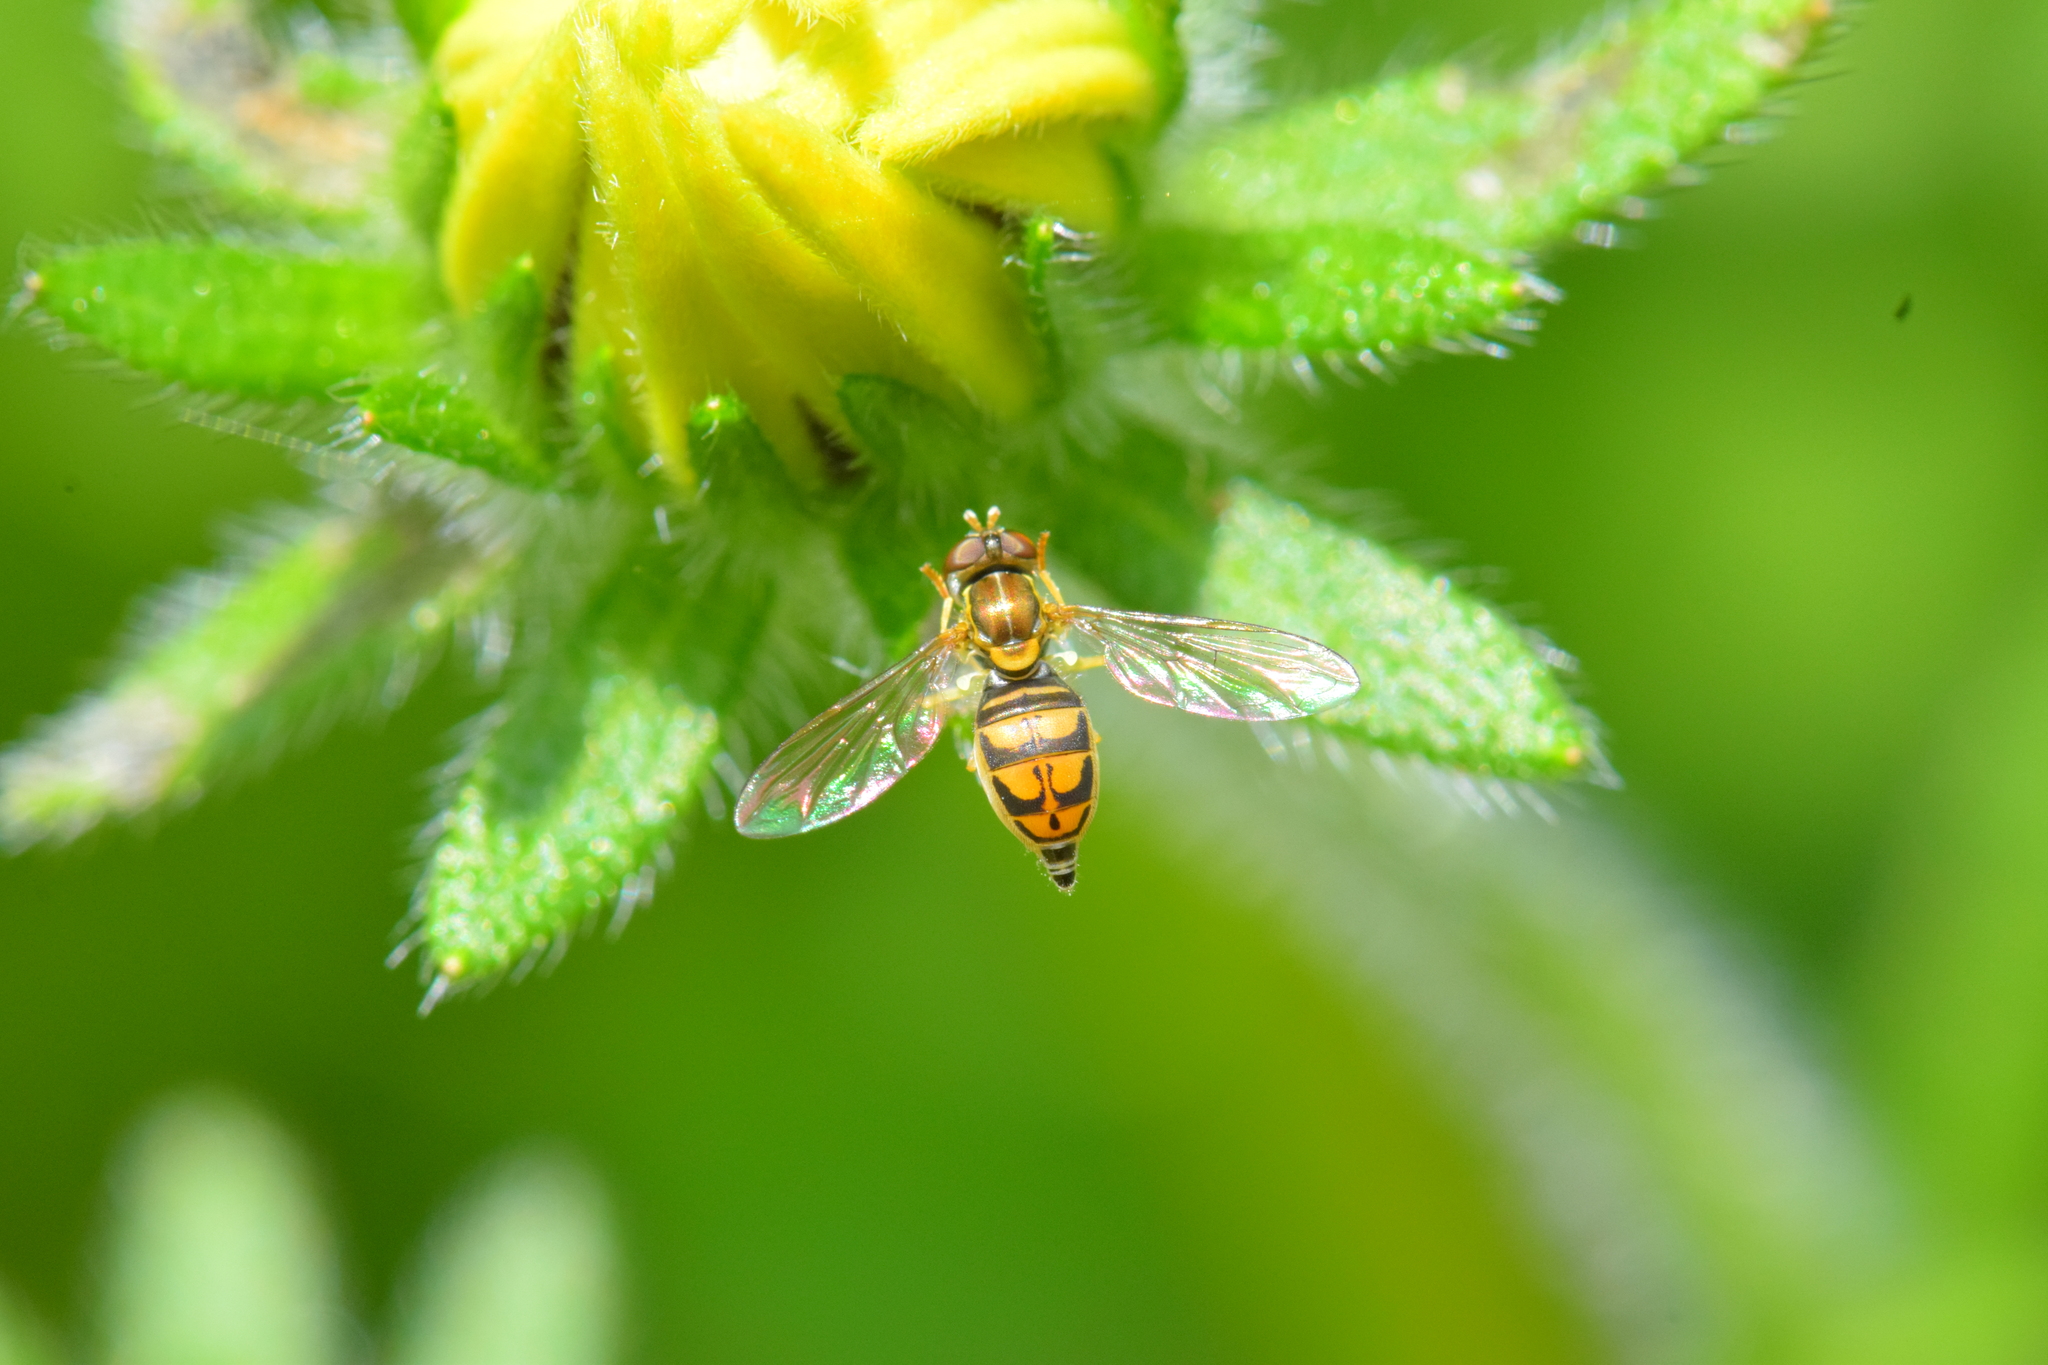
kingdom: Animalia
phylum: Arthropoda
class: Insecta
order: Diptera
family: Syrphidae
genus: Toxomerus
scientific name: Toxomerus marginatus
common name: Syrphid fly
